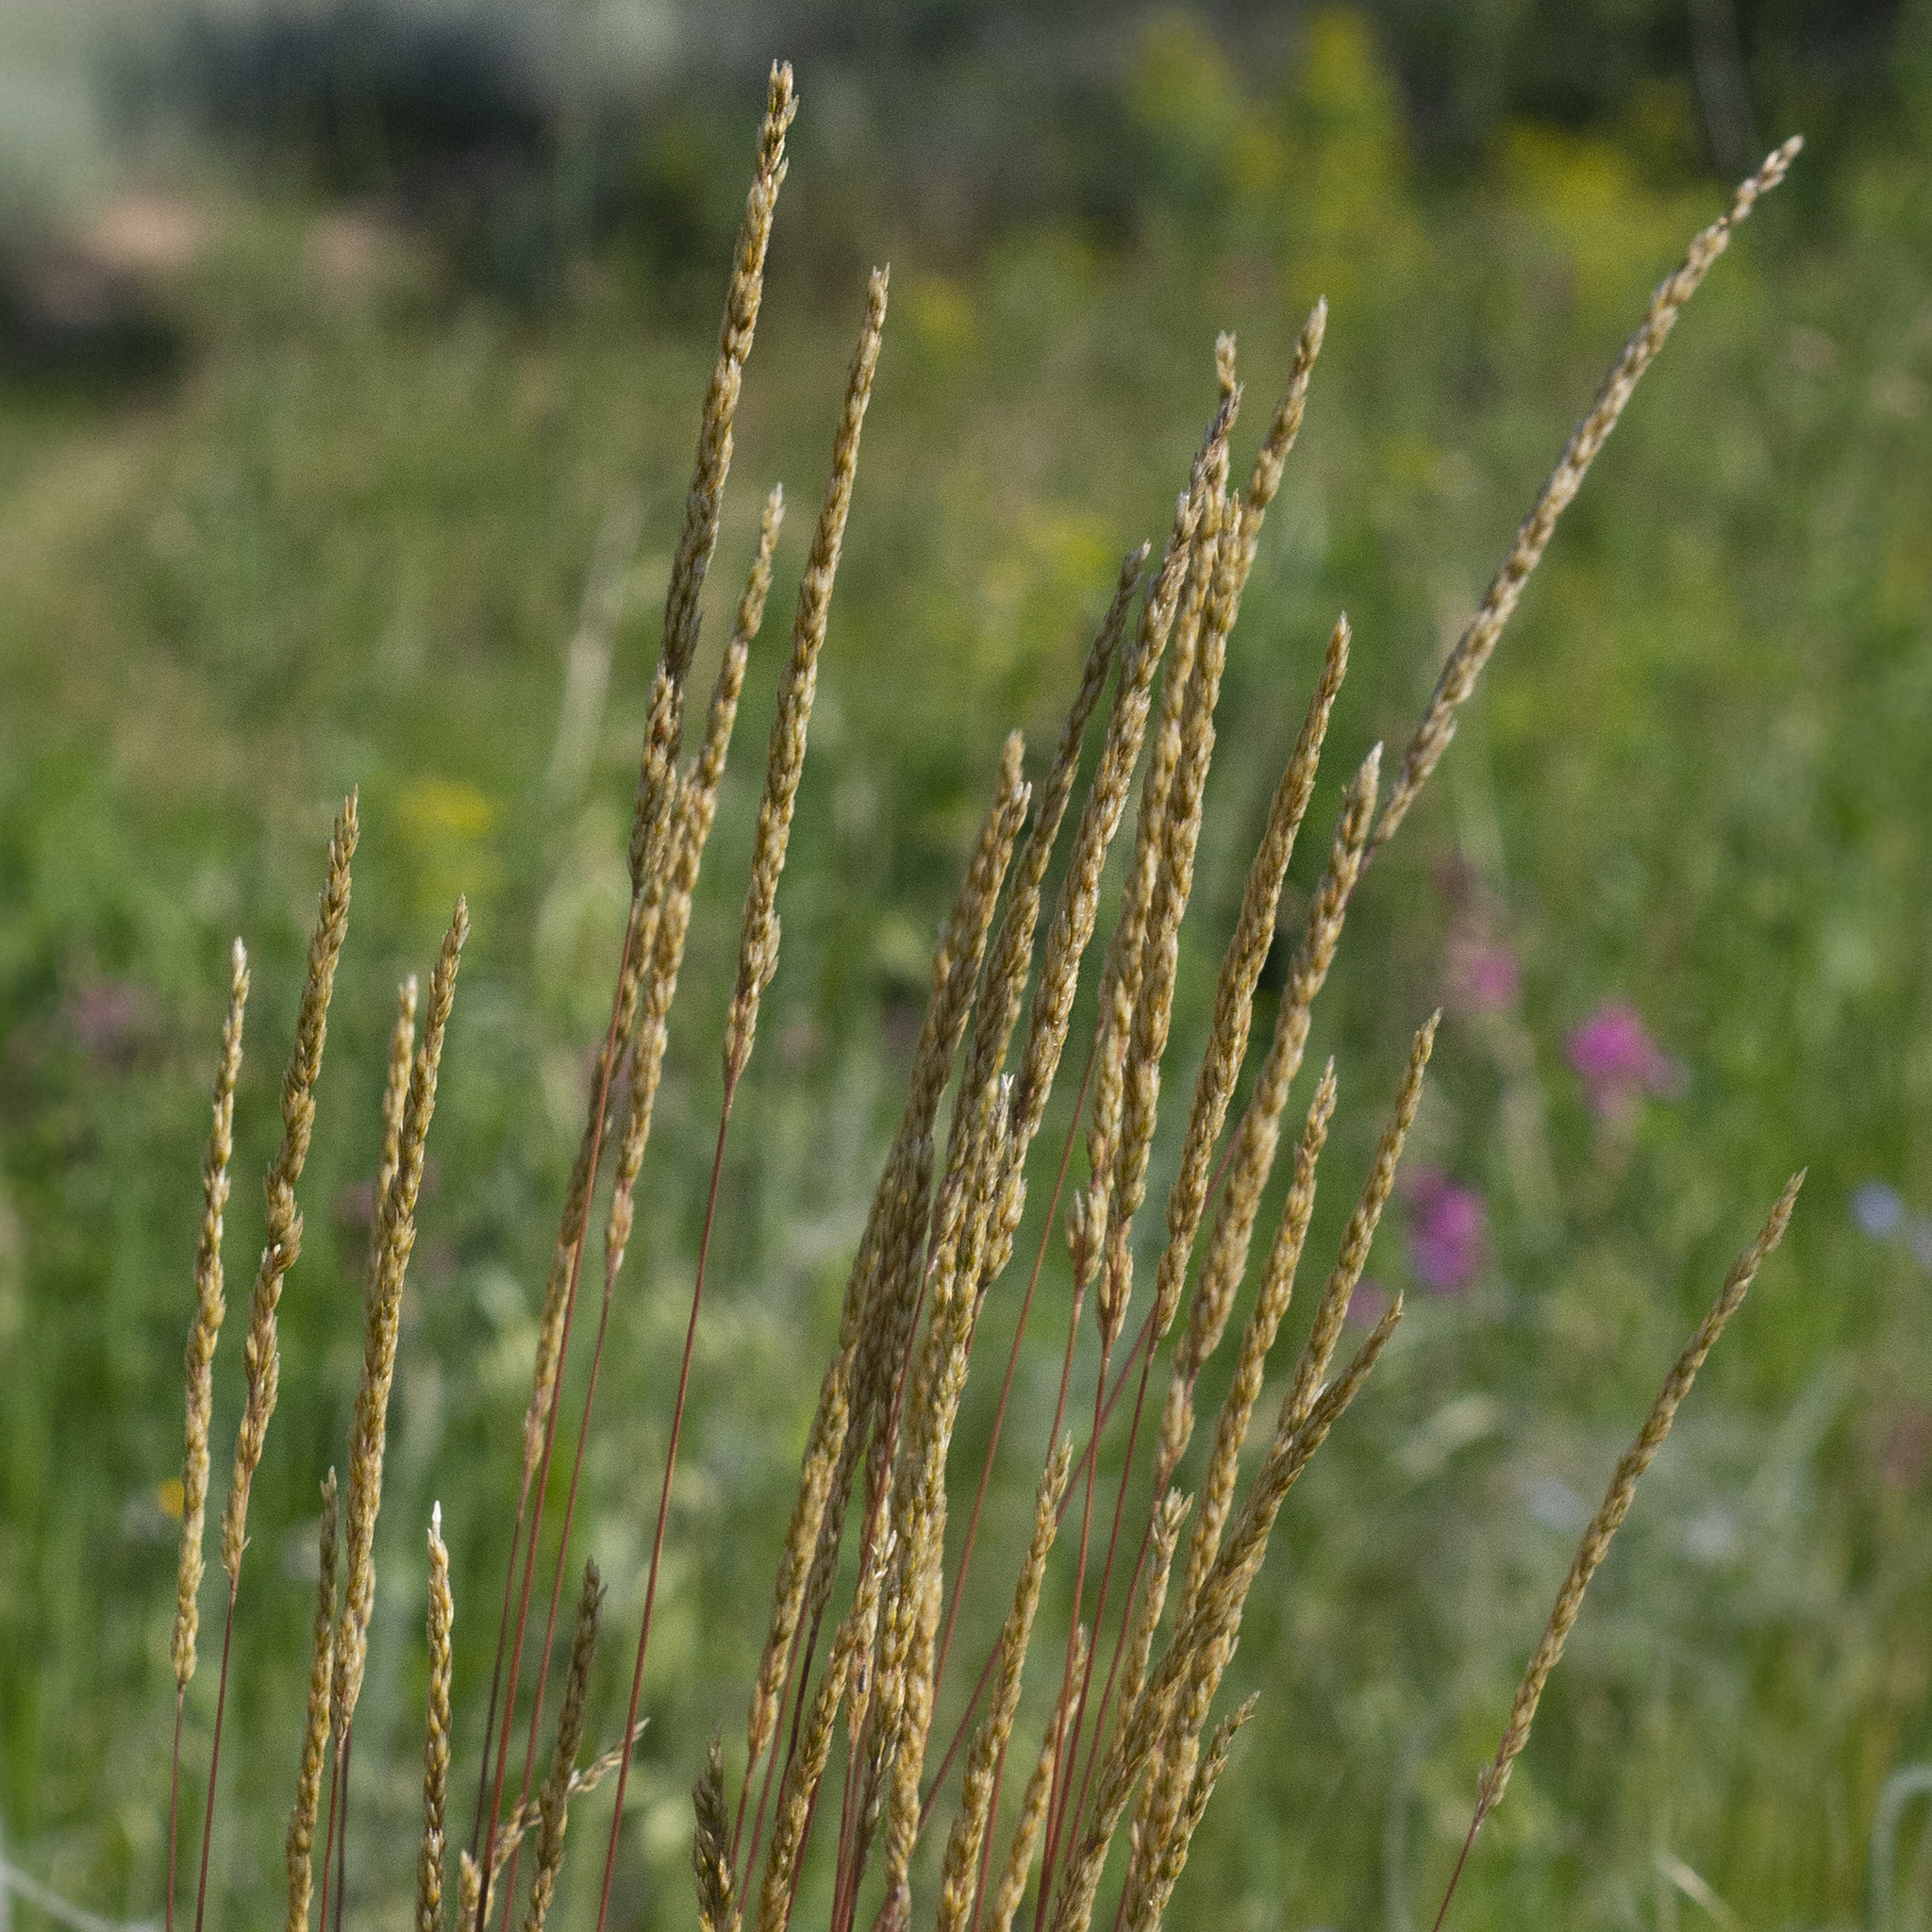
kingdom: Plantae
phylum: Tracheophyta
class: Liliopsida
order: Poales
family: Poaceae
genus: Koeleria
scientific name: Koeleria macrantha
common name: Crested hair-grass
